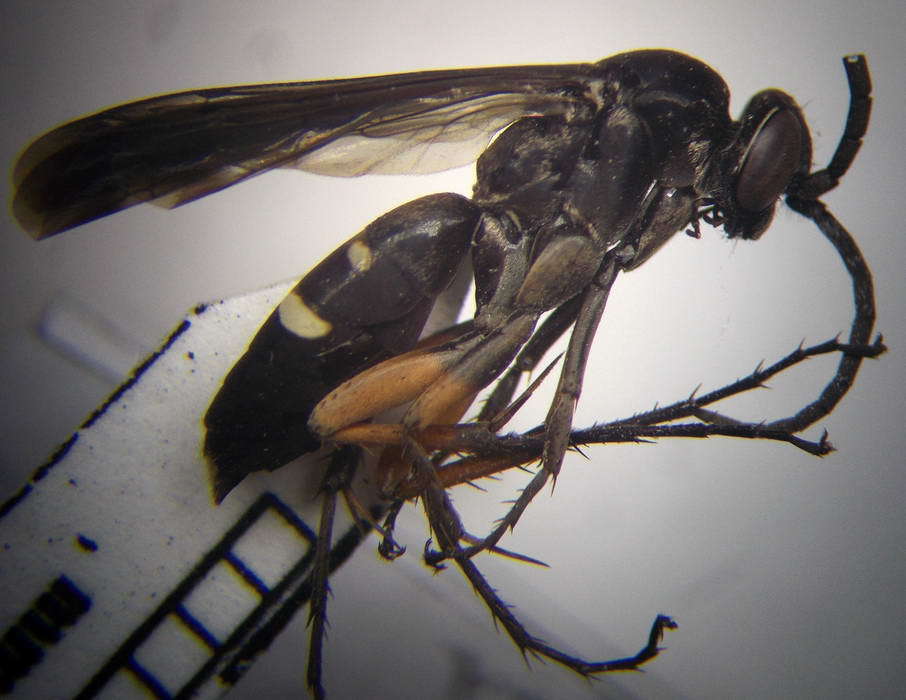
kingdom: Animalia
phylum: Arthropoda
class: Insecta
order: Hymenoptera
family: Pompilidae
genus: Episyron
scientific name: Episyron albonotatum
